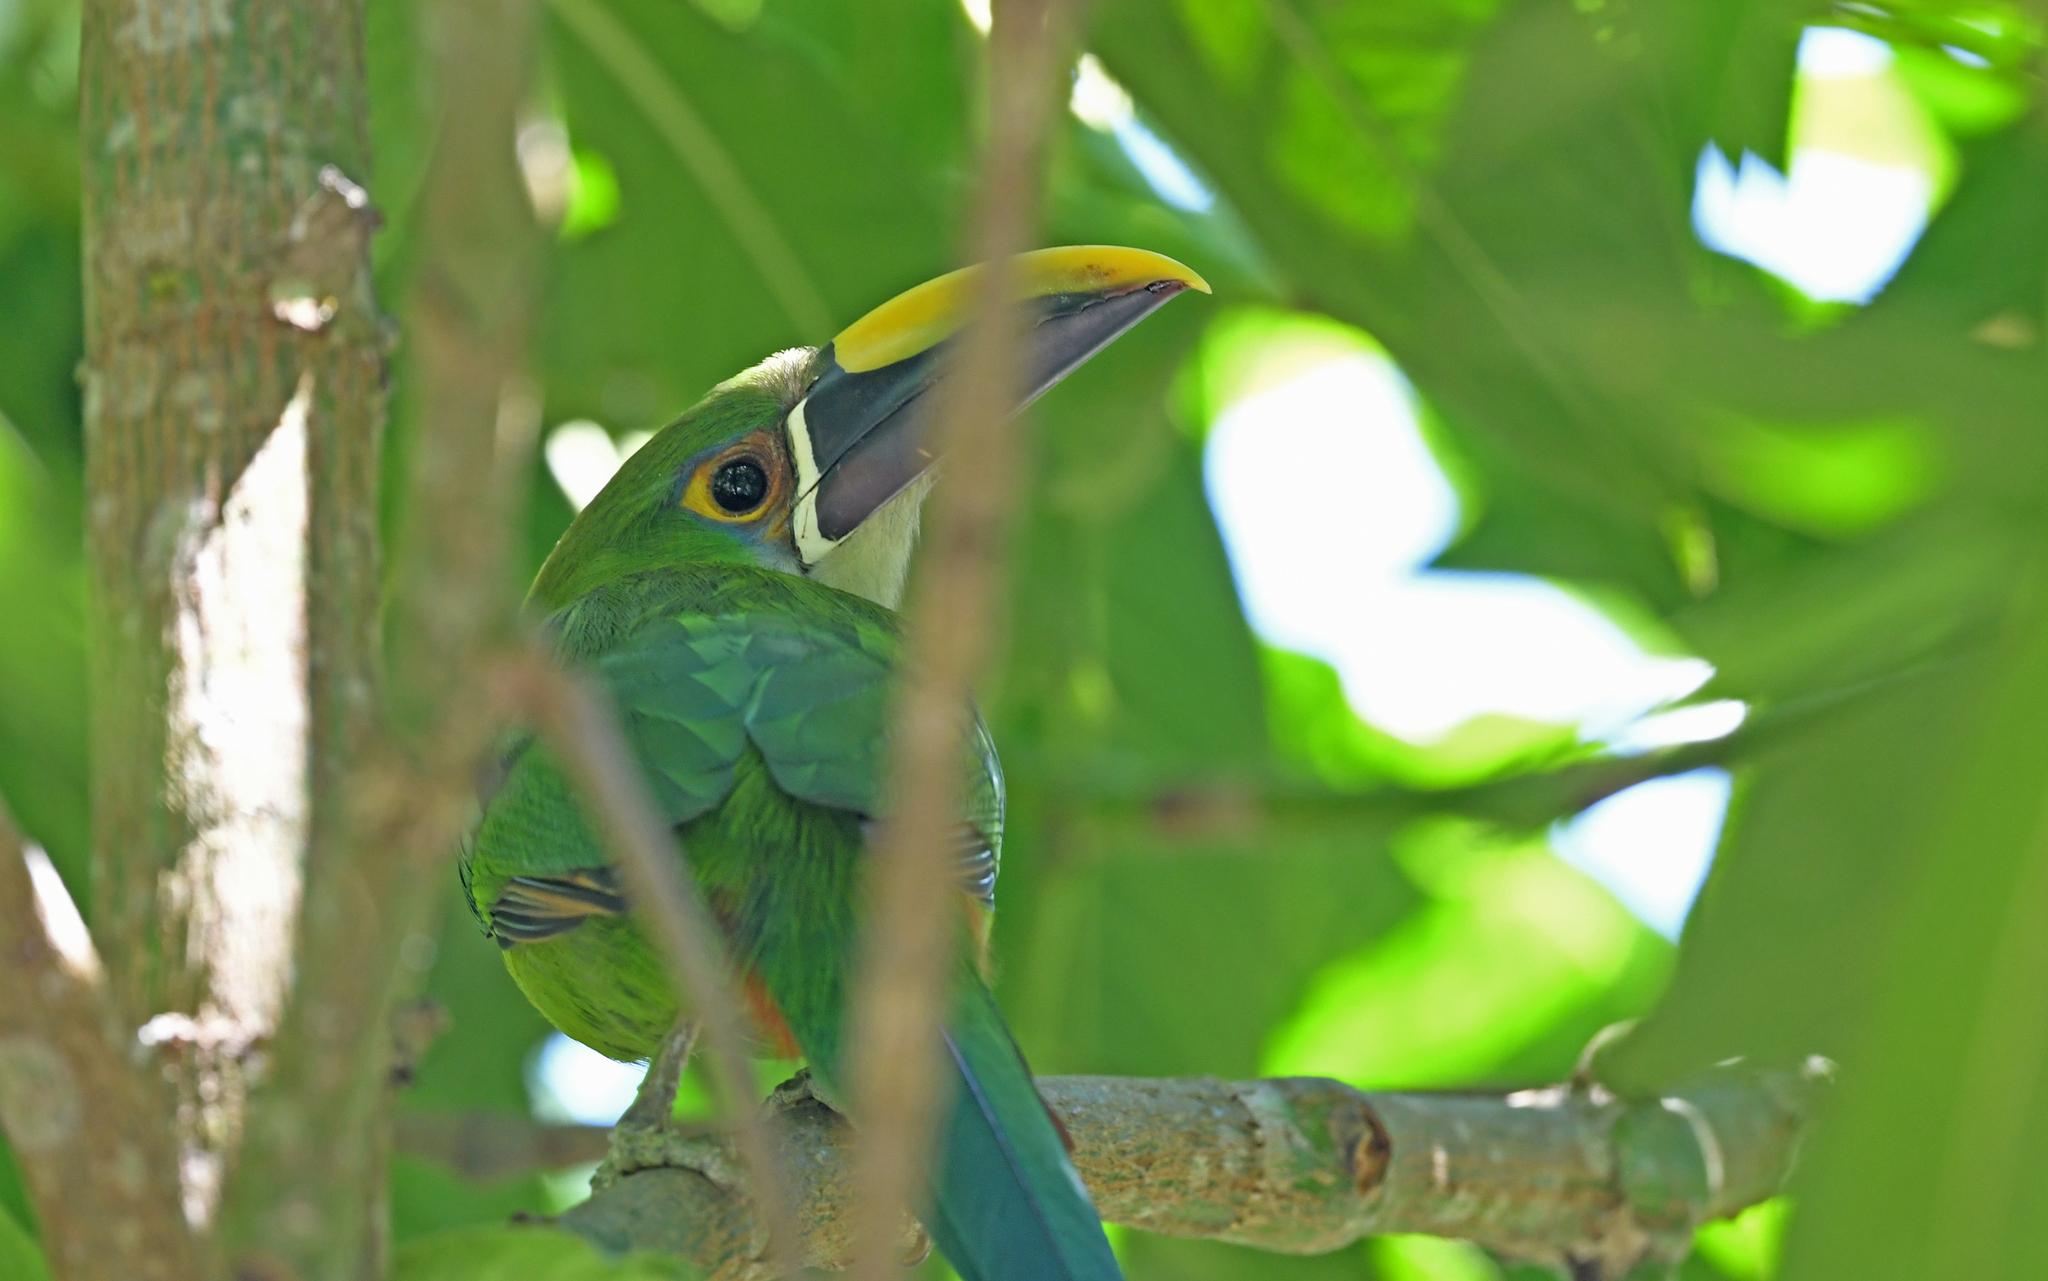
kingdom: Animalia
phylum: Chordata
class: Aves
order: Piciformes
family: Ramphastidae
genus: Aulacorhynchus
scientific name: Aulacorhynchus albivitta
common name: White-throated toucanet
